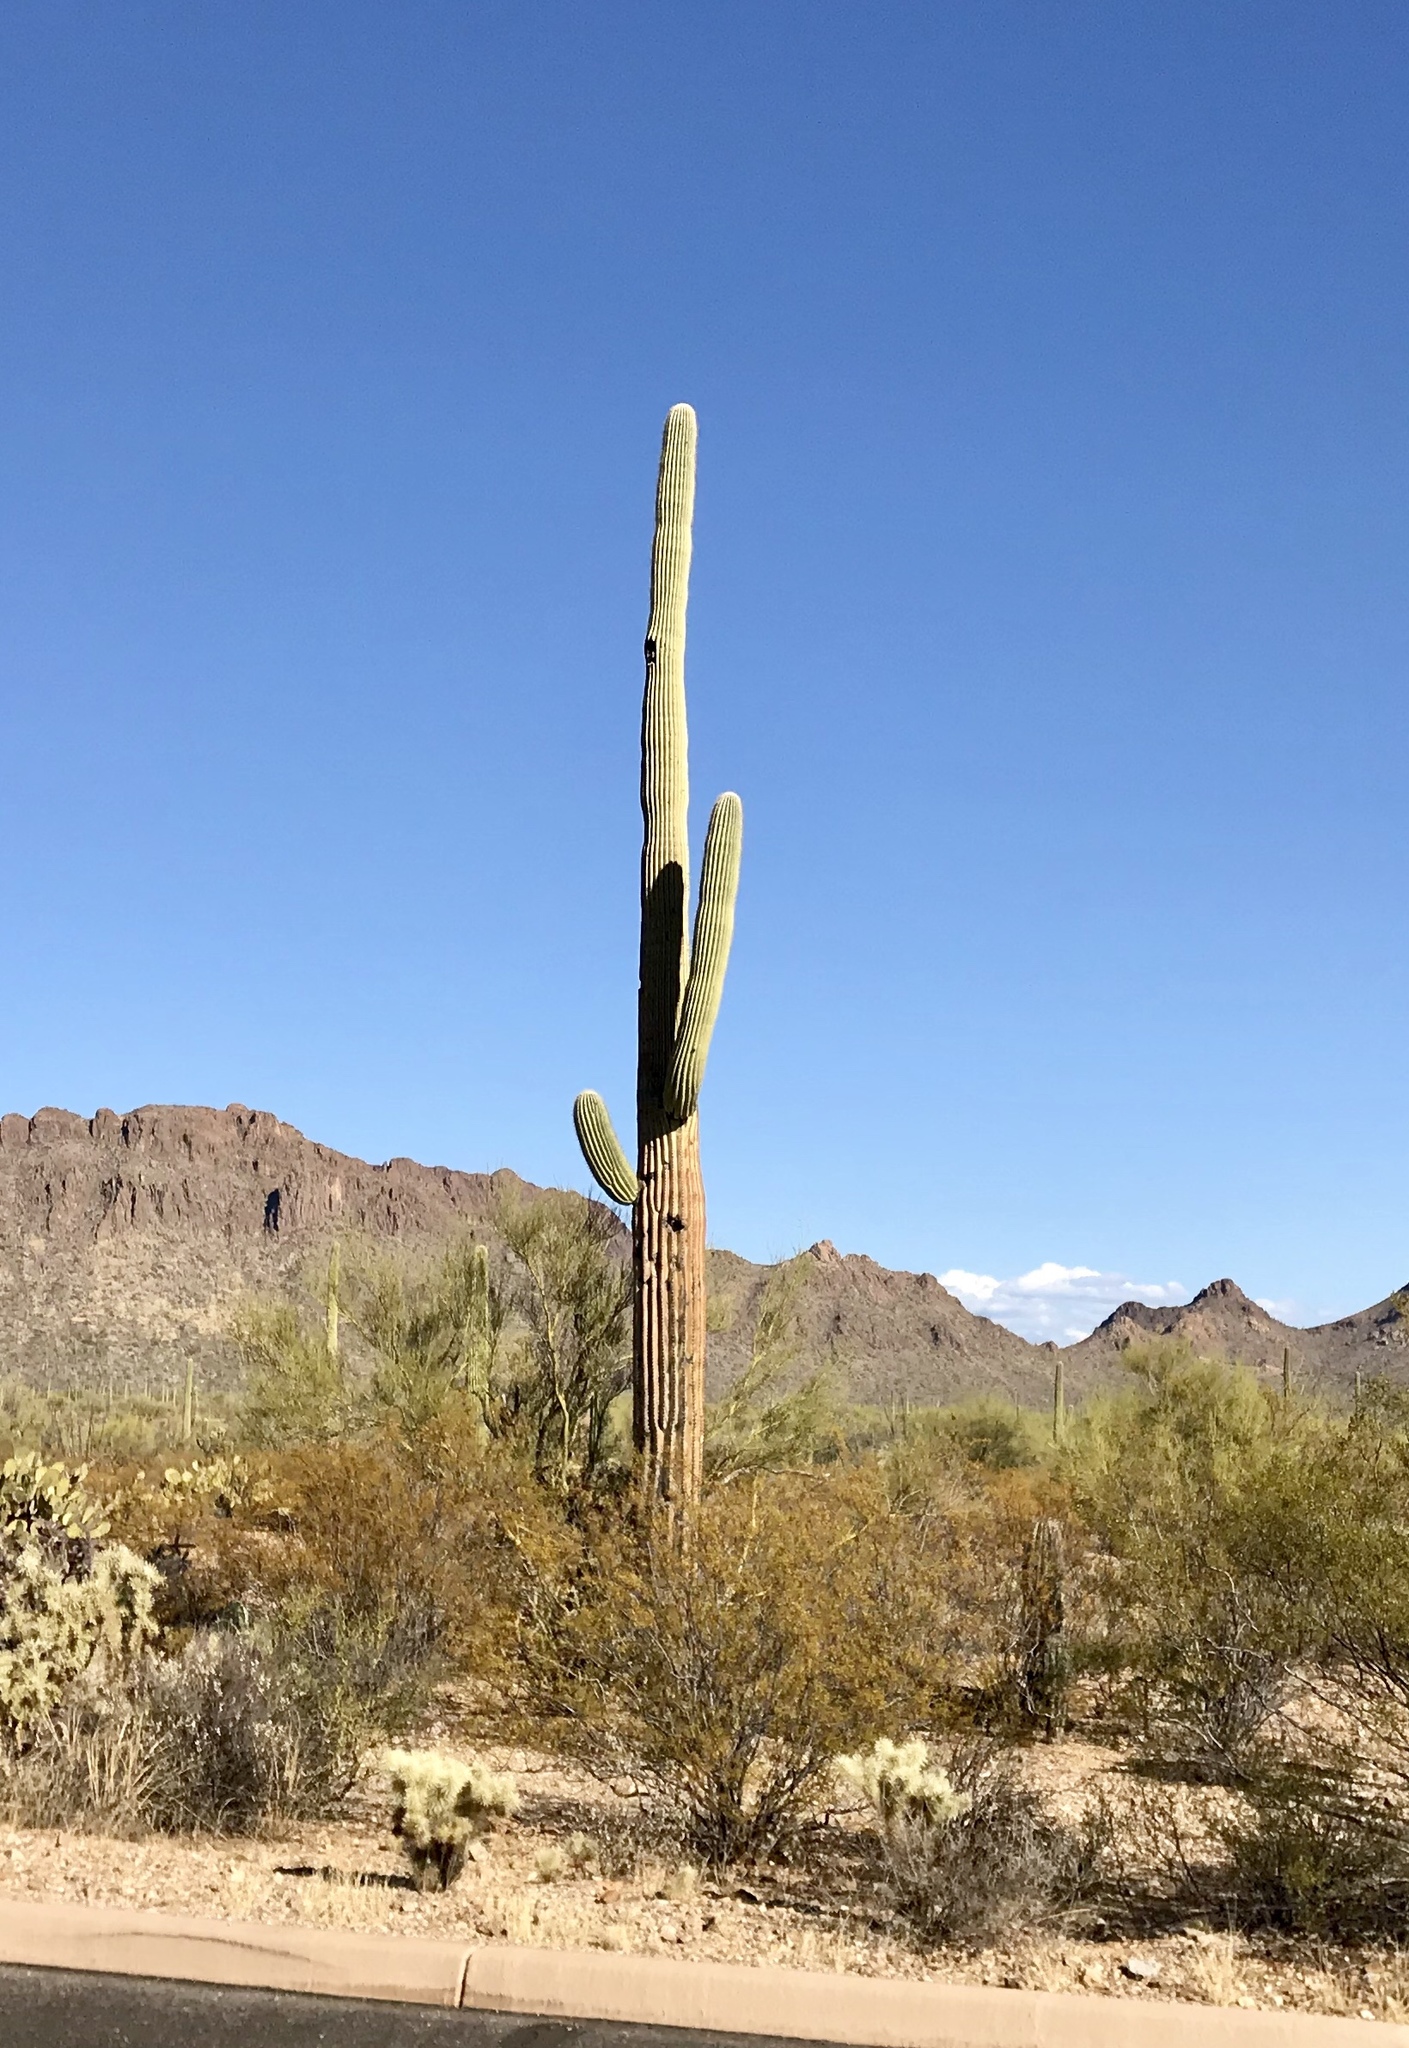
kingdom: Plantae
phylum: Tracheophyta
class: Magnoliopsida
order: Caryophyllales
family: Cactaceae
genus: Carnegiea
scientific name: Carnegiea gigantea
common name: Saguaro
